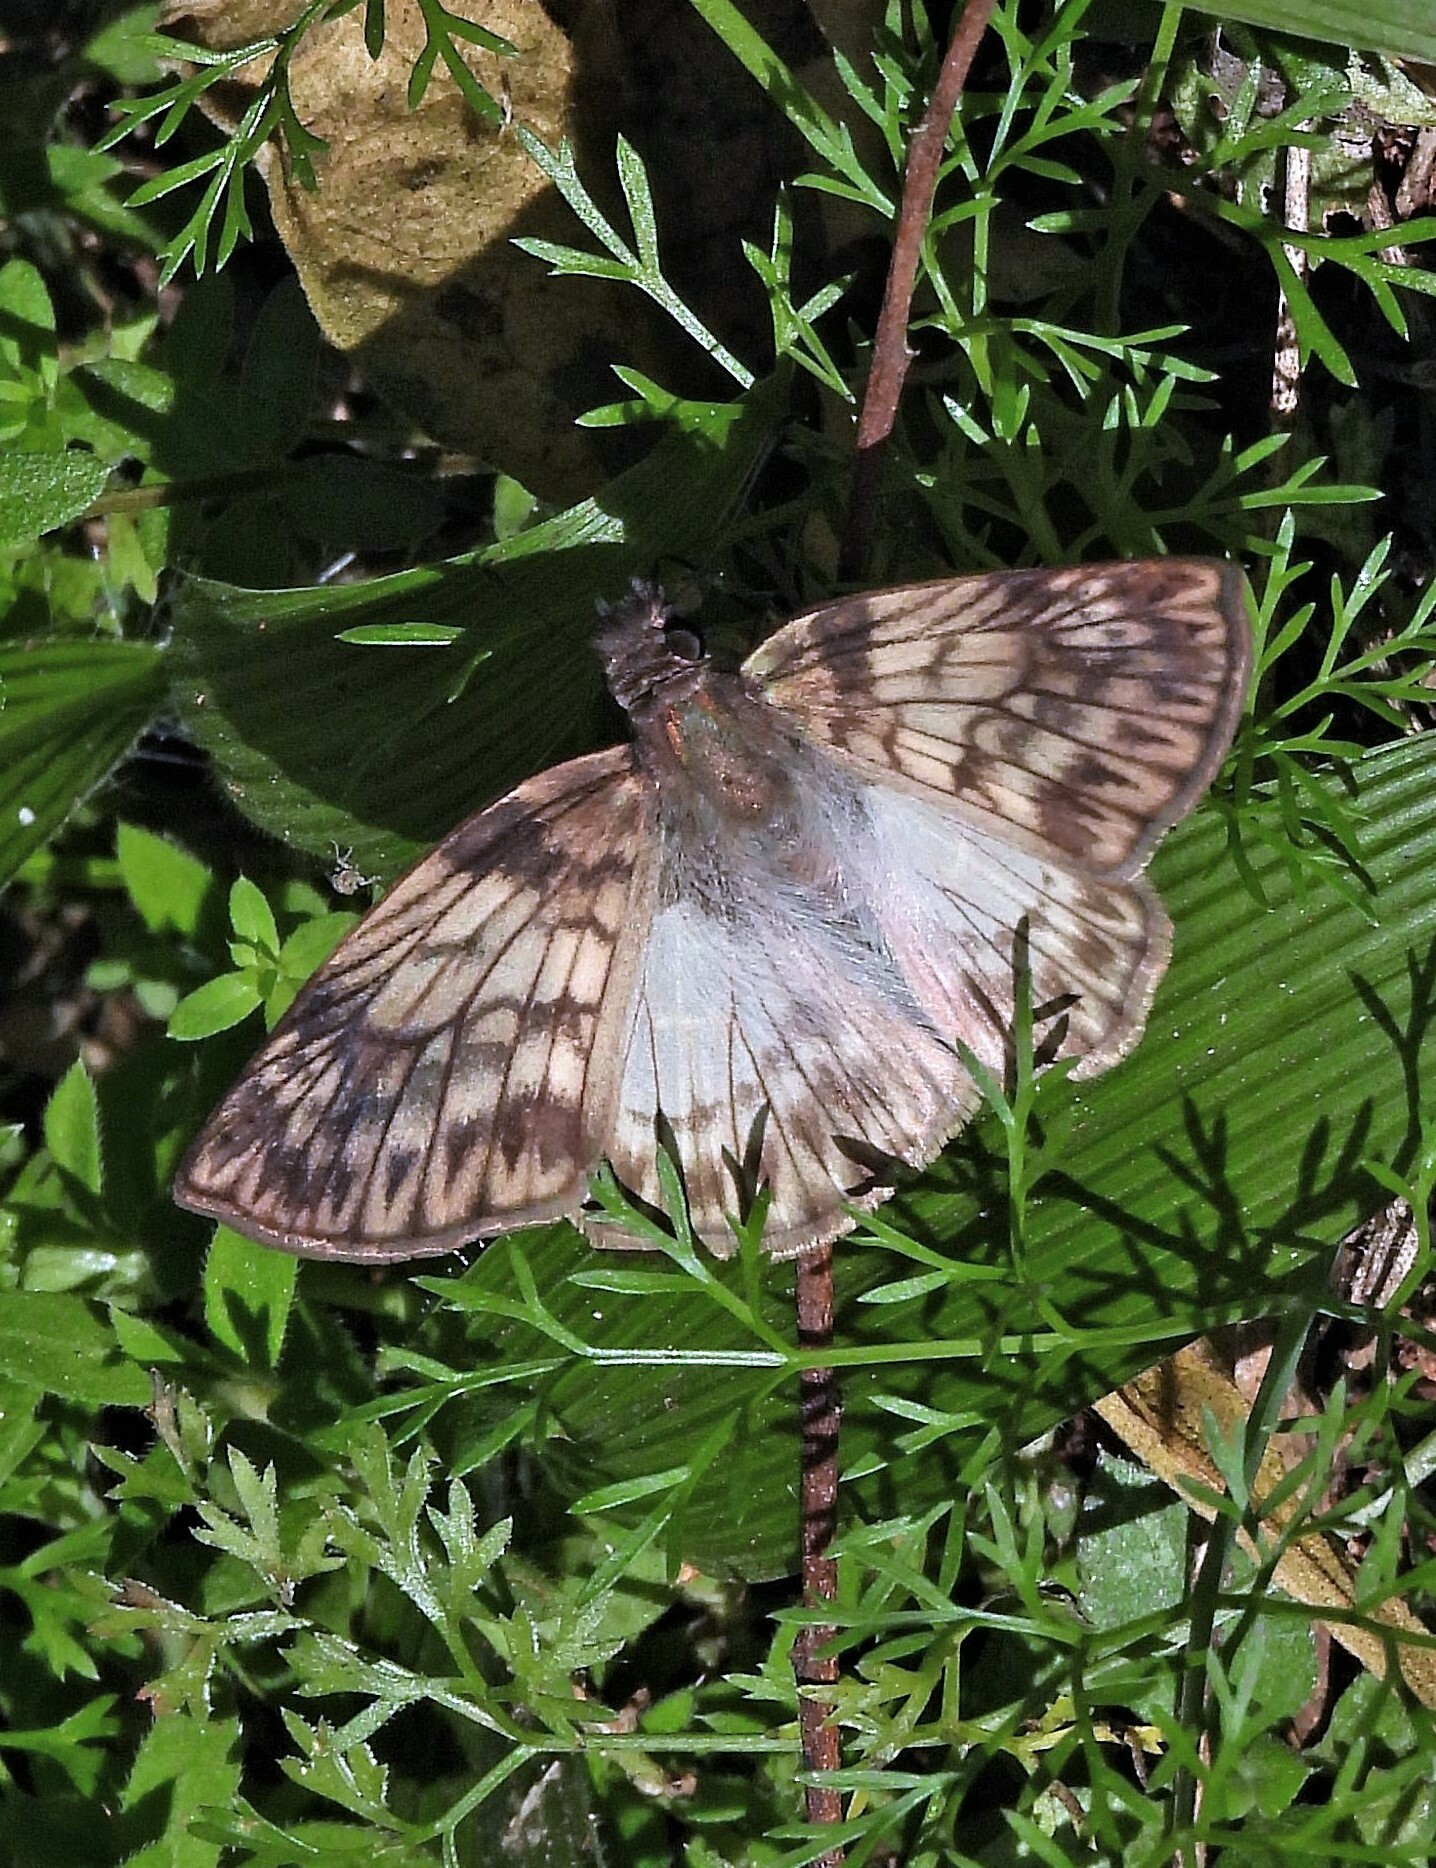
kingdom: Animalia
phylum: Arthropoda
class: Insecta
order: Lepidoptera
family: Hesperiidae
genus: Mylon
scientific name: Mylon maimon
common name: Common mylon
